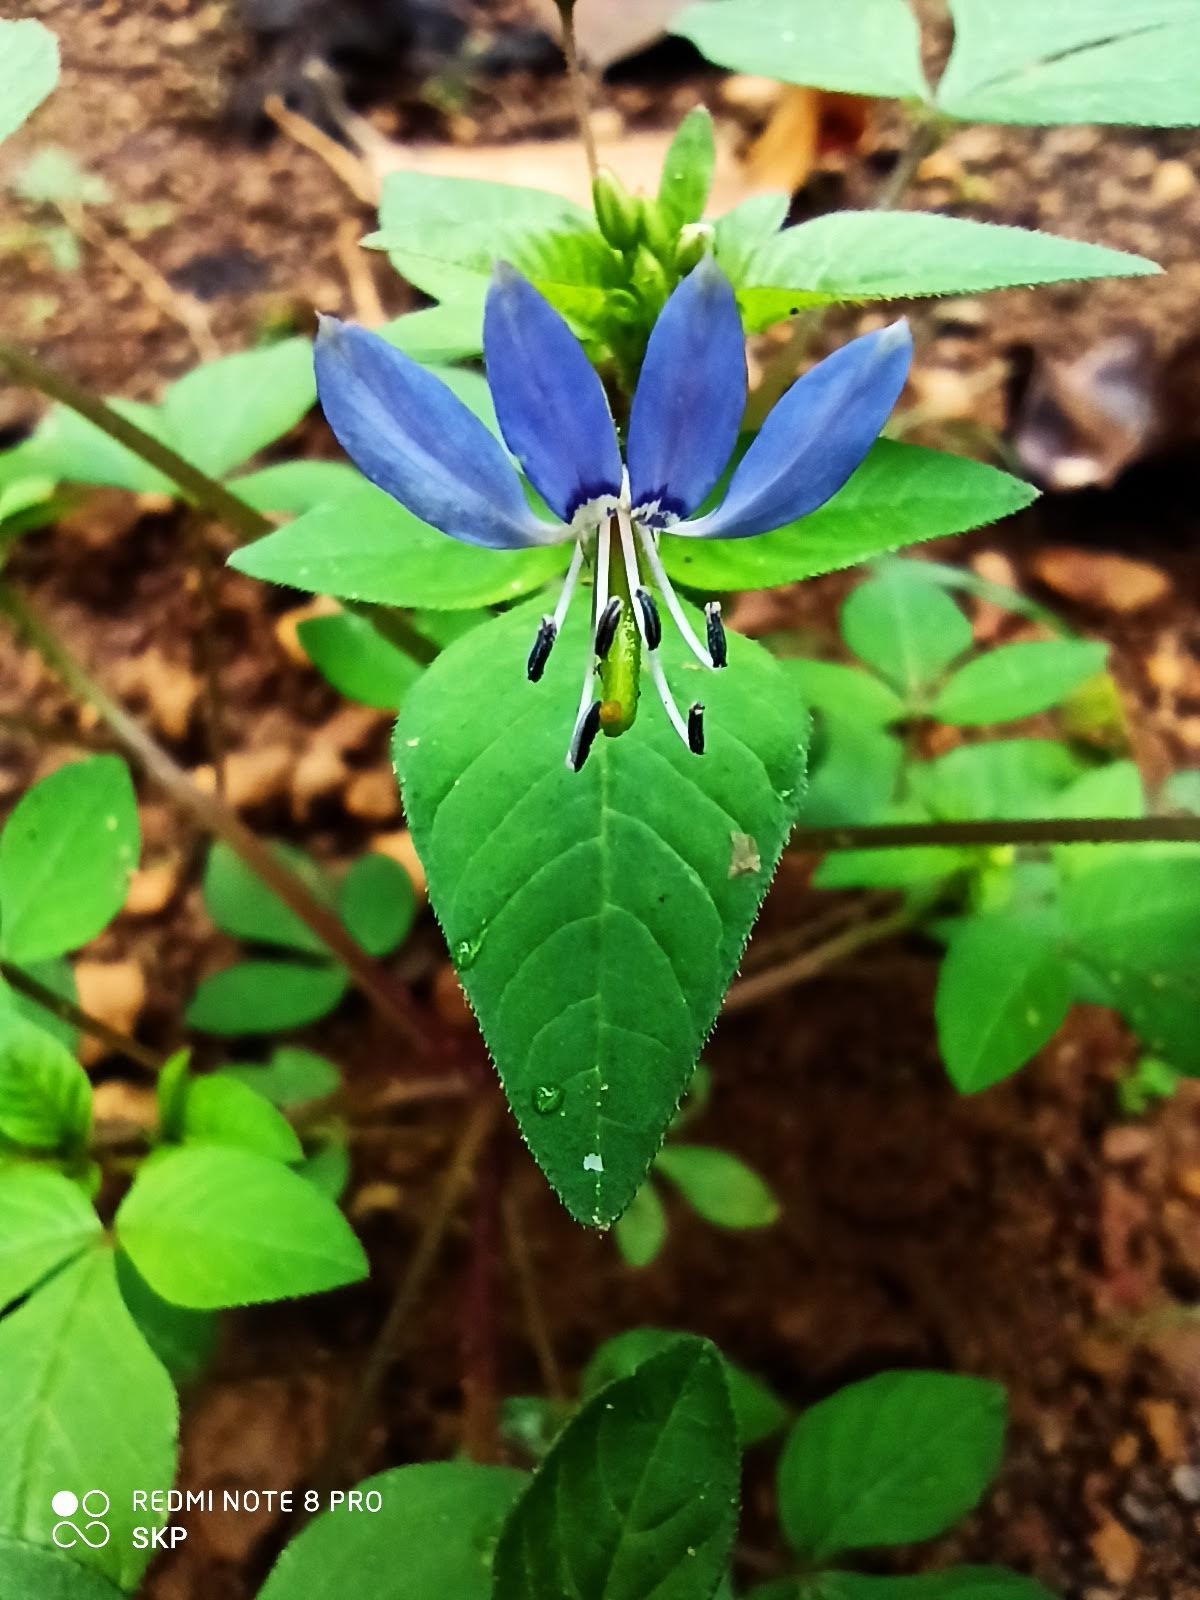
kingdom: Plantae
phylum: Tracheophyta
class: Magnoliopsida
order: Brassicales
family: Cleomaceae
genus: Sieruela
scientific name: Sieruela rutidosperma
